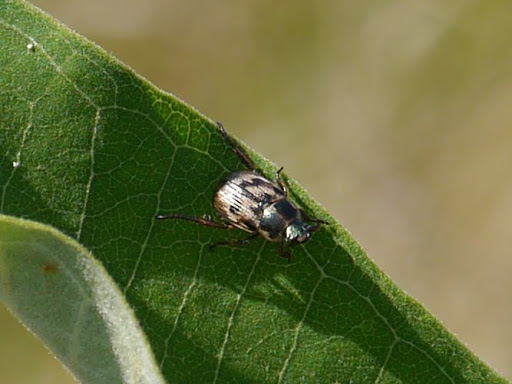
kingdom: Animalia
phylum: Arthropoda
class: Insecta
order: Coleoptera
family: Scarabaeidae
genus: Exomala
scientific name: Exomala orientalis
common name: Oriental beetle
